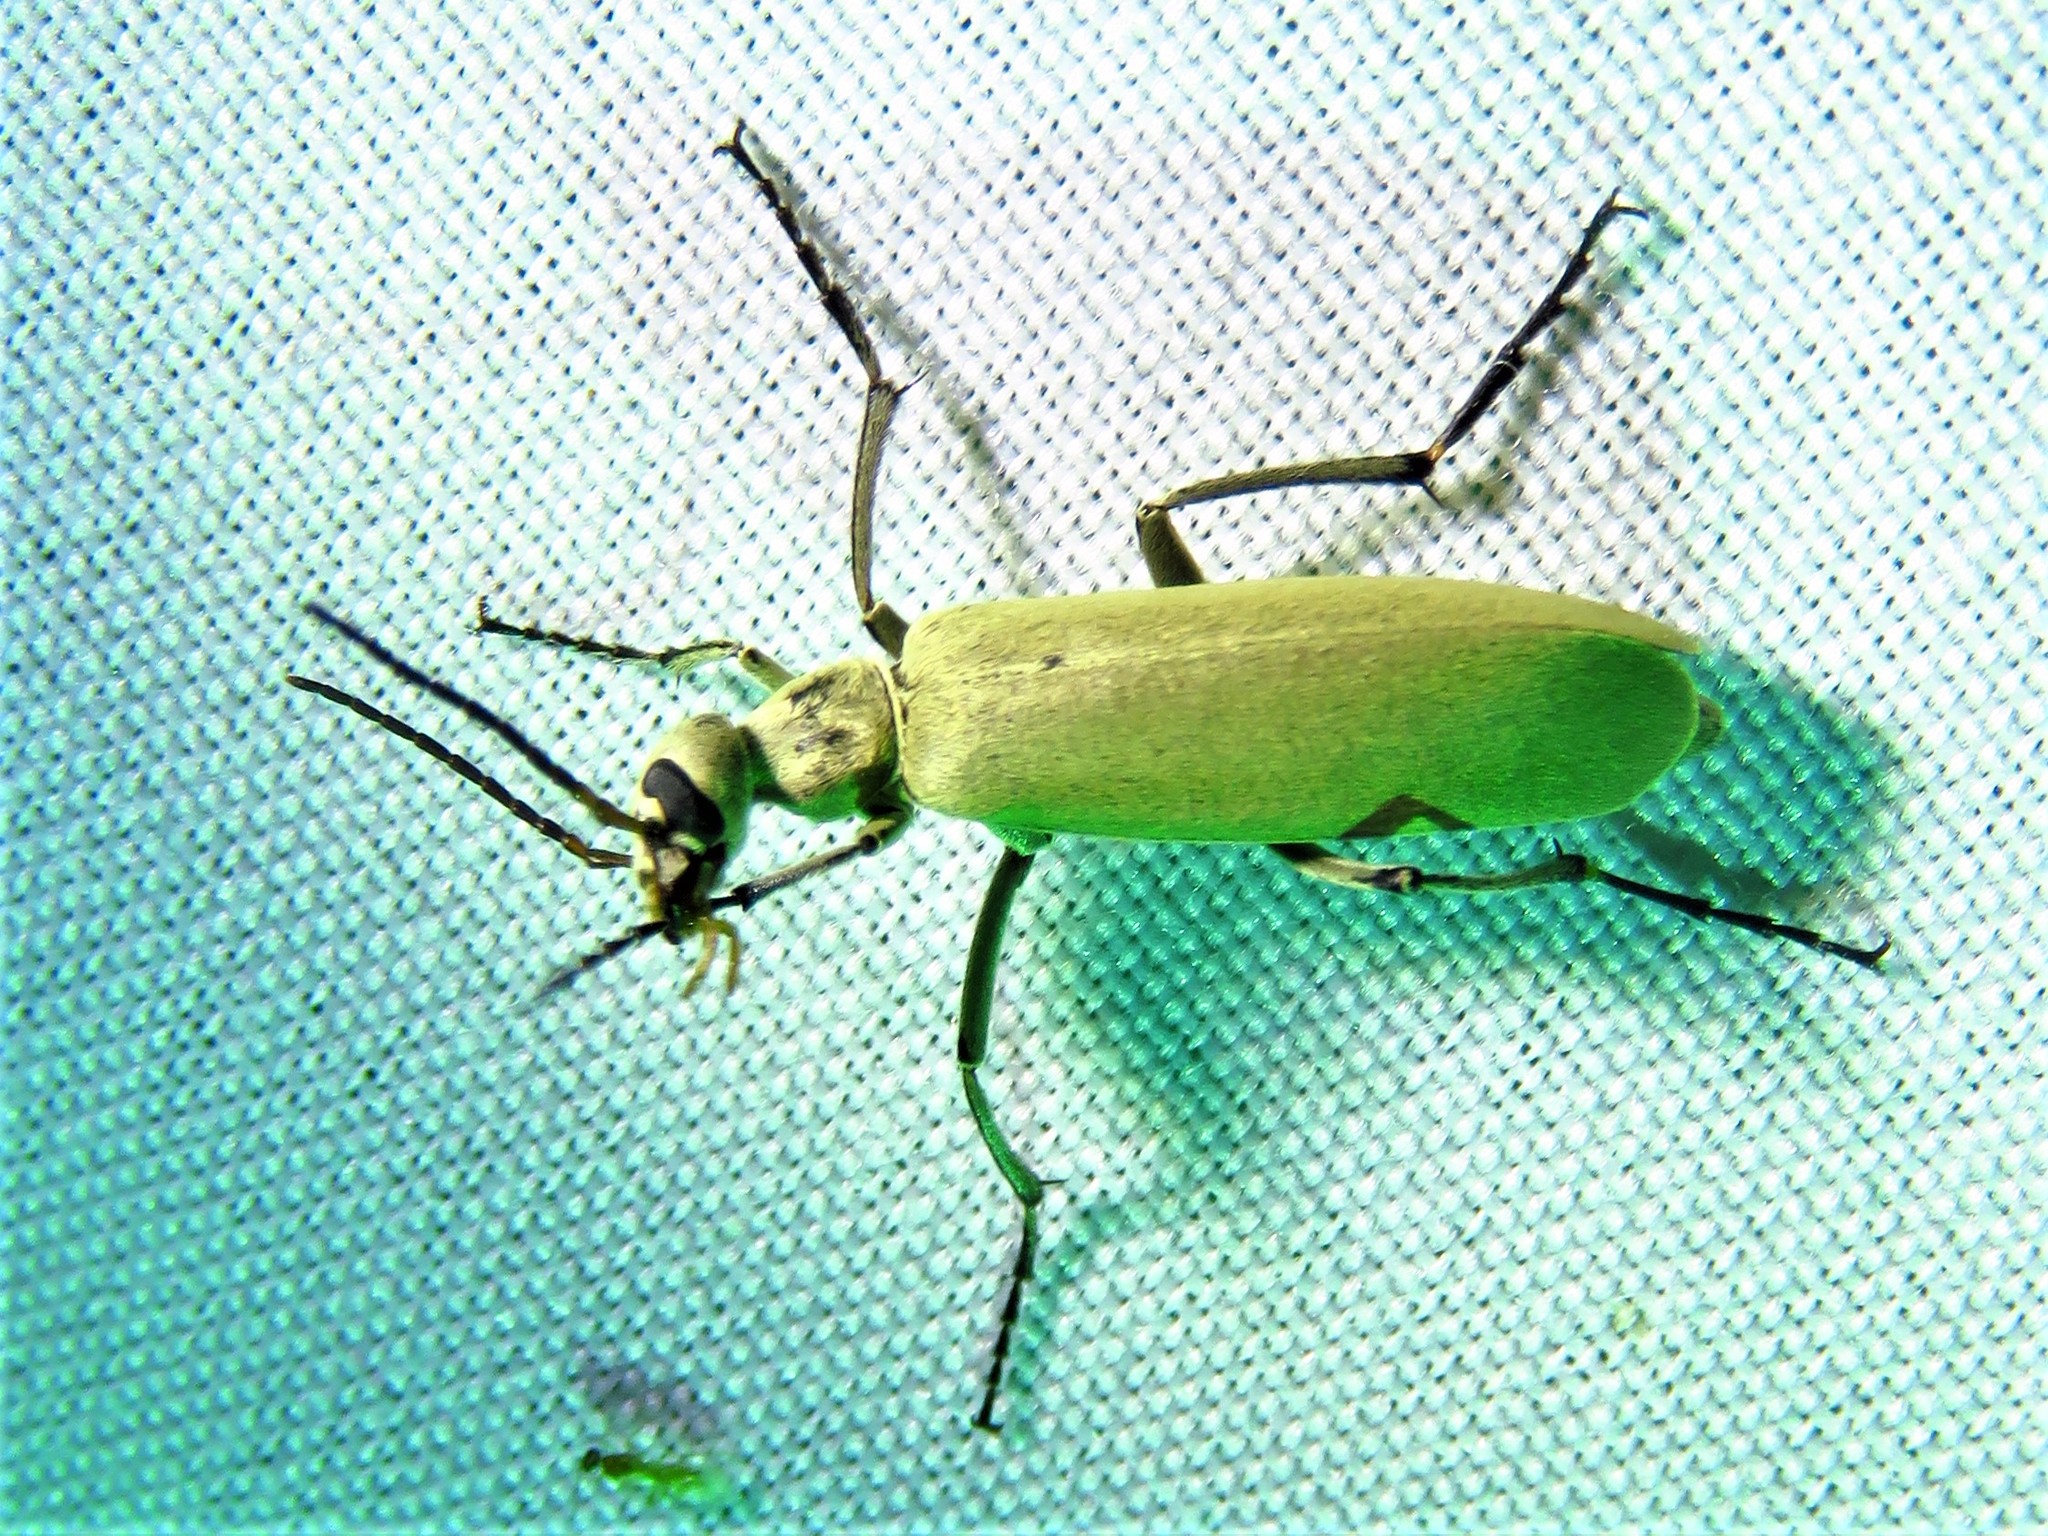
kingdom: Animalia
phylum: Arthropoda
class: Insecta
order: Coleoptera
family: Meloidae
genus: Epicauta
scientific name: Epicauta albida
